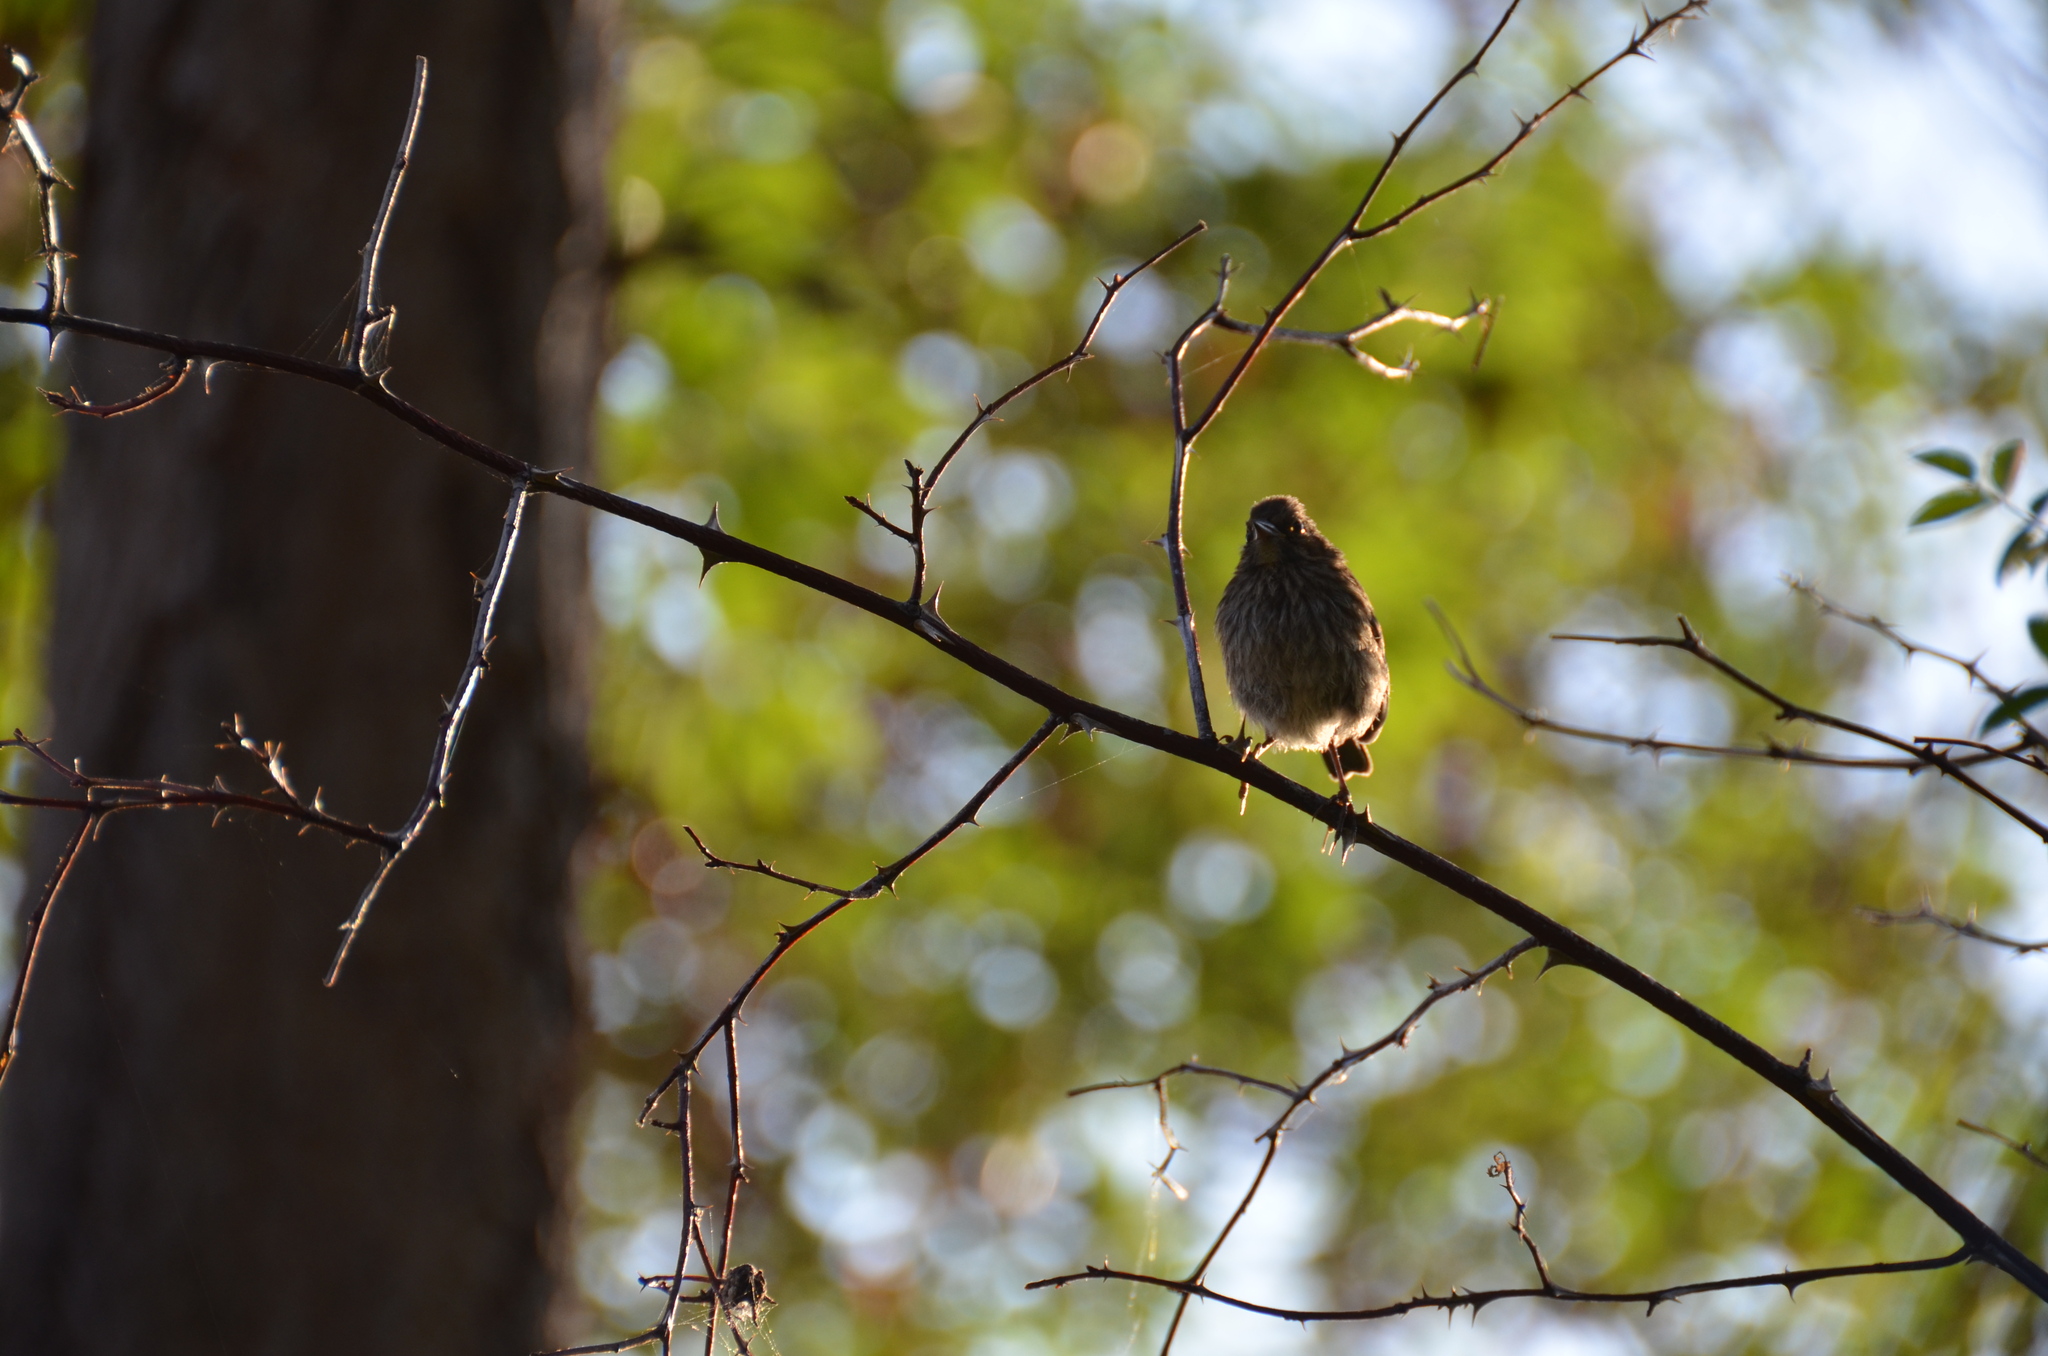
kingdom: Animalia
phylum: Chordata
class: Aves
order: Passeriformes
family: Fringillidae
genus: Haemorhous
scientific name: Haemorhous mexicanus
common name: House finch
